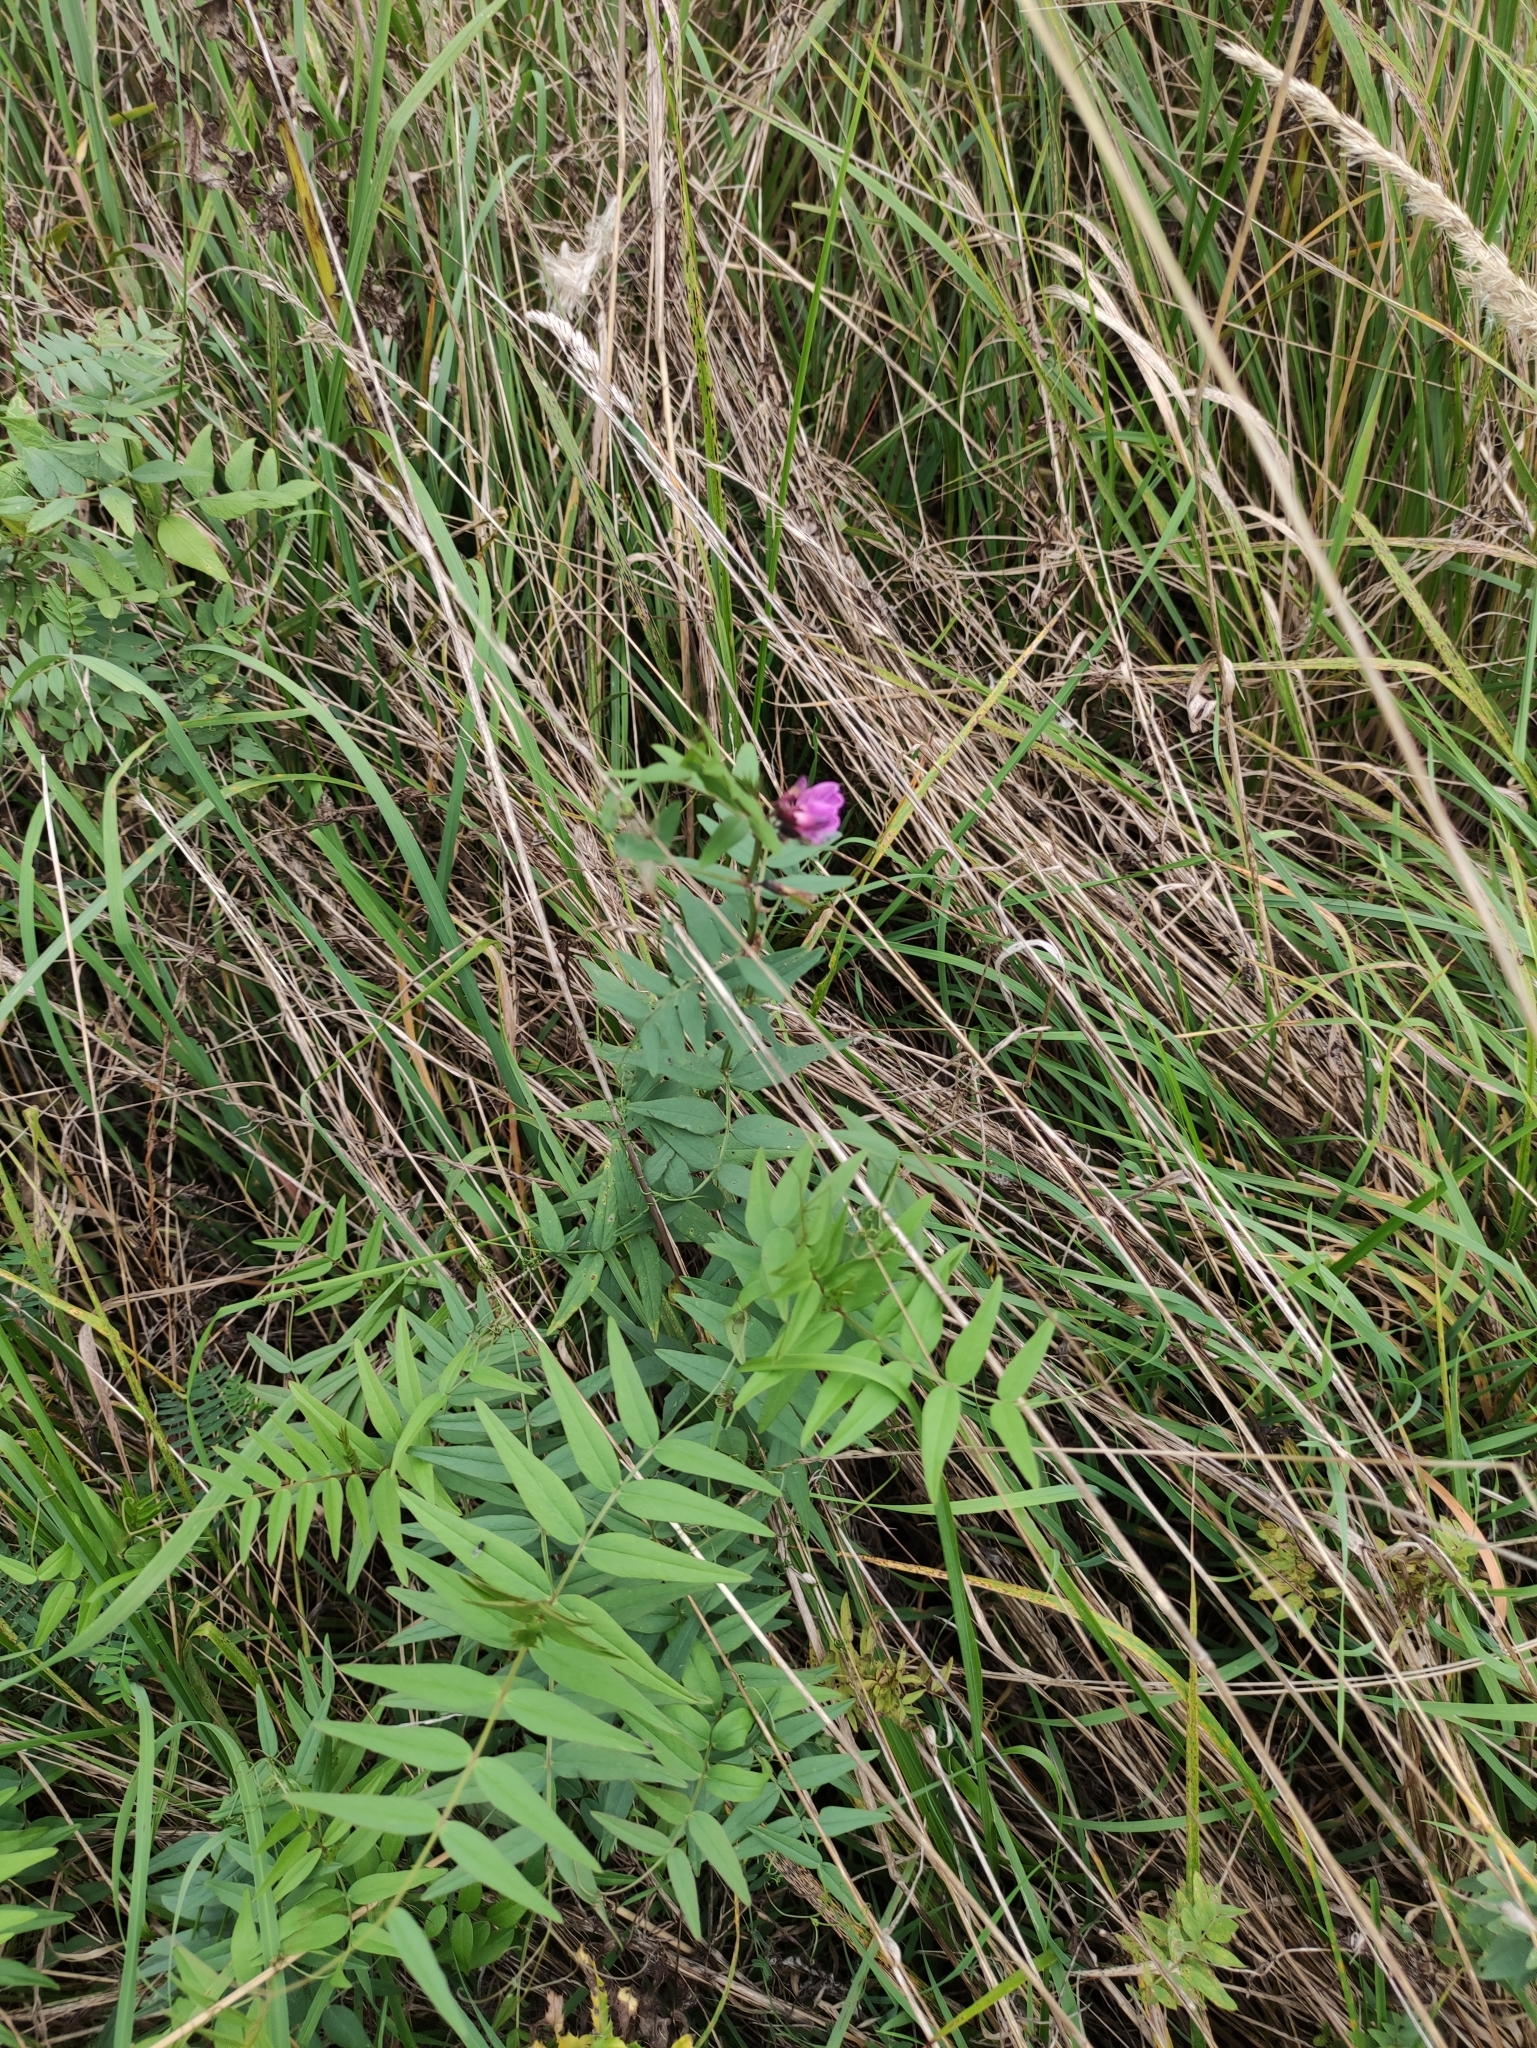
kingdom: Plantae
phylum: Tracheophyta
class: Magnoliopsida
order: Fabales
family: Fabaceae
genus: Vicia
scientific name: Vicia sepium
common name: Bush vetch
